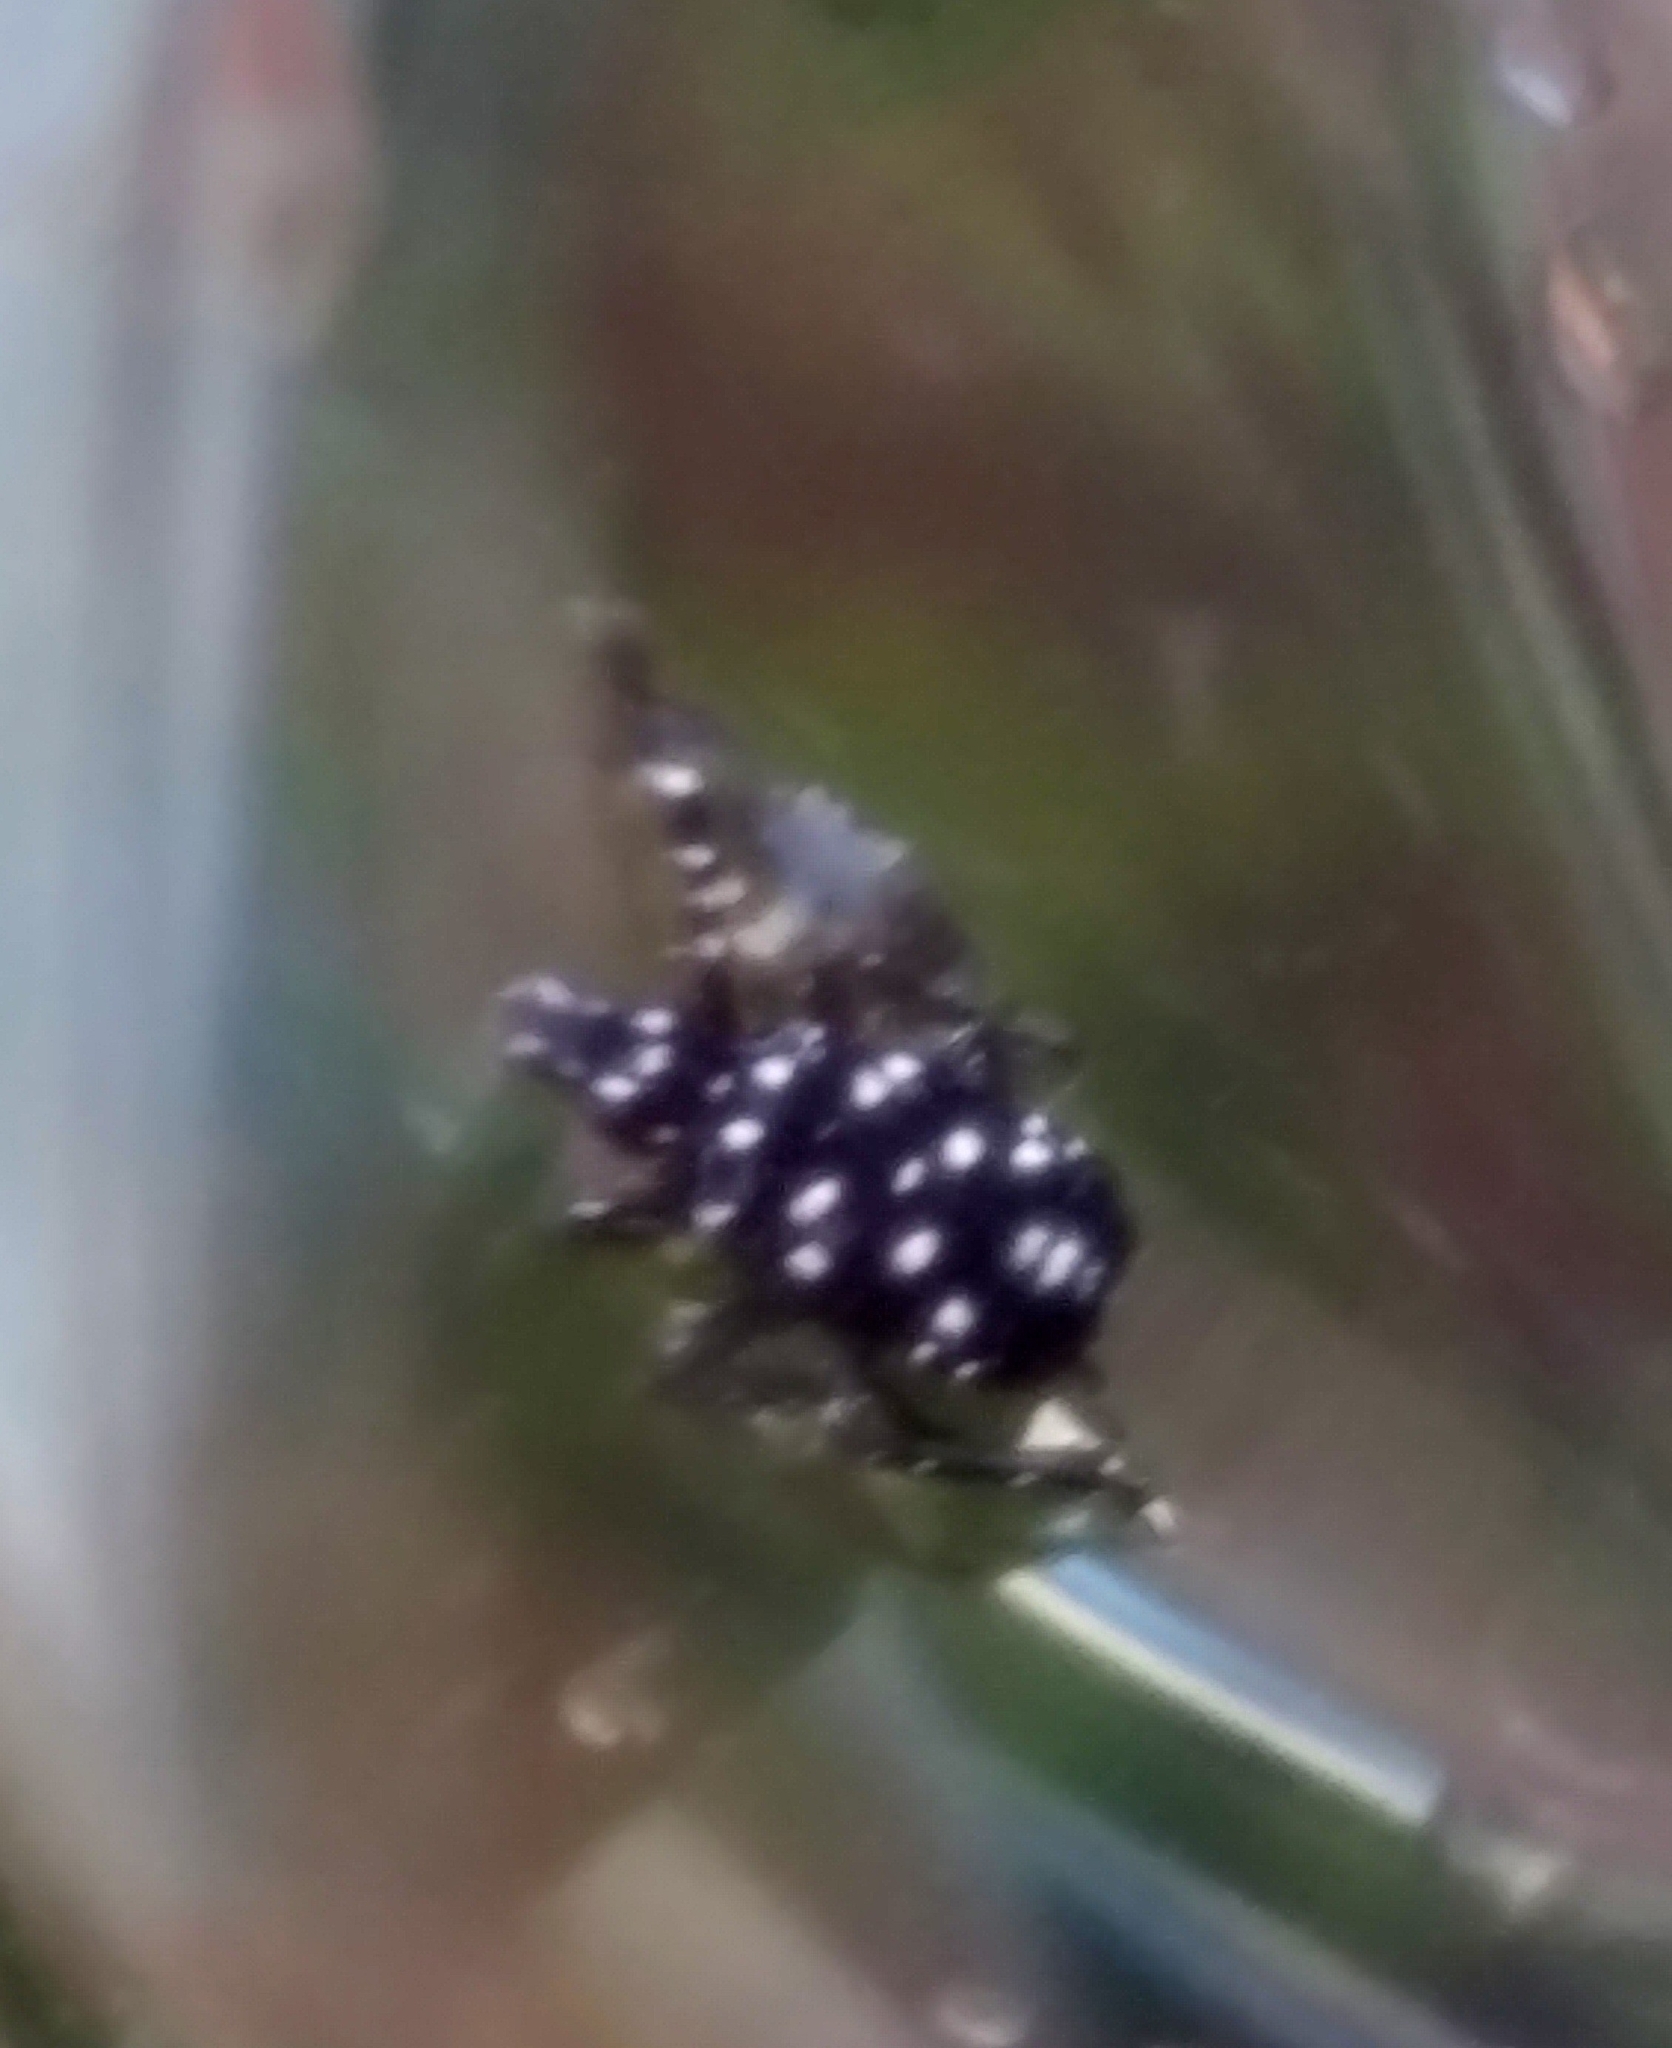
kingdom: Animalia
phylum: Arthropoda
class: Insecta
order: Hemiptera
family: Fulgoridae
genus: Lycorma
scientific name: Lycorma delicatula
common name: Spotted lanternfly
